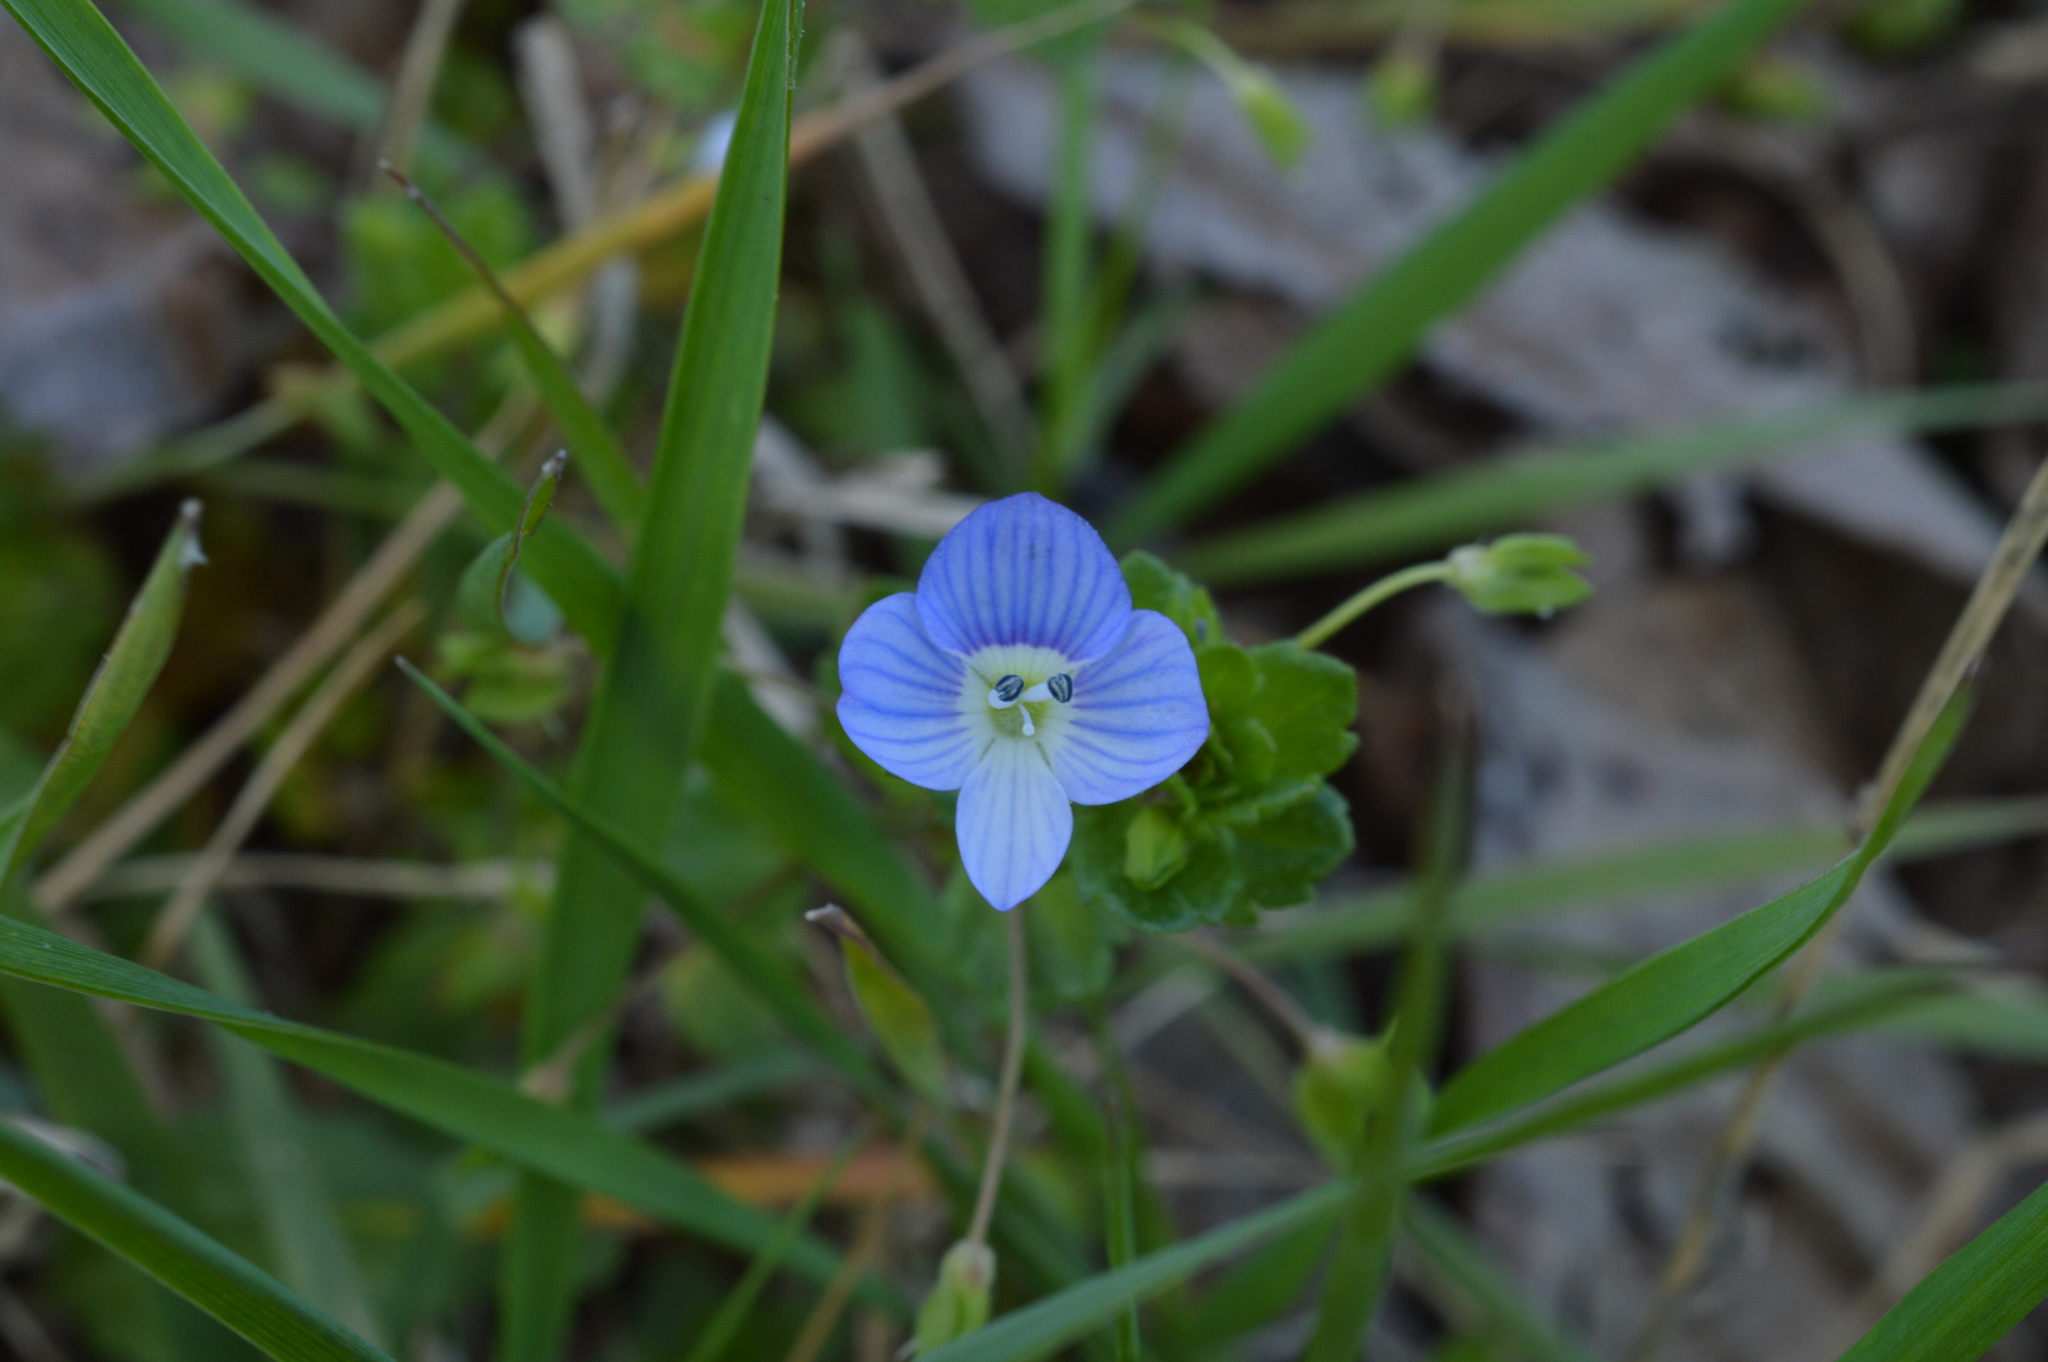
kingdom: Plantae
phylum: Tracheophyta
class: Magnoliopsida
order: Lamiales
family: Plantaginaceae
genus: Veronica
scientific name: Veronica persica
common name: Common field-speedwell
